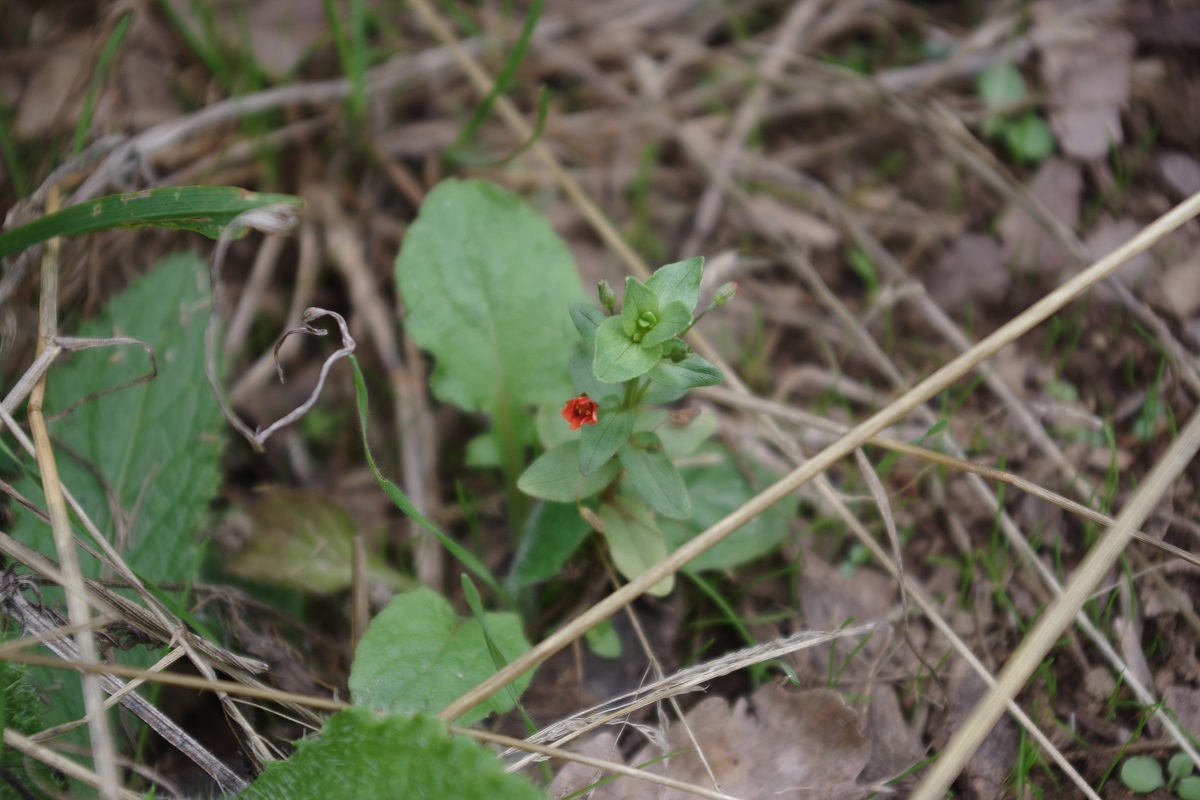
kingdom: Plantae
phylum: Tracheophyta
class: Magnoliopsida
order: Ericales
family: Primulaceae
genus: Lysimachia
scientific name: Lysimachia arvensis
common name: Scarlet pimpernel
